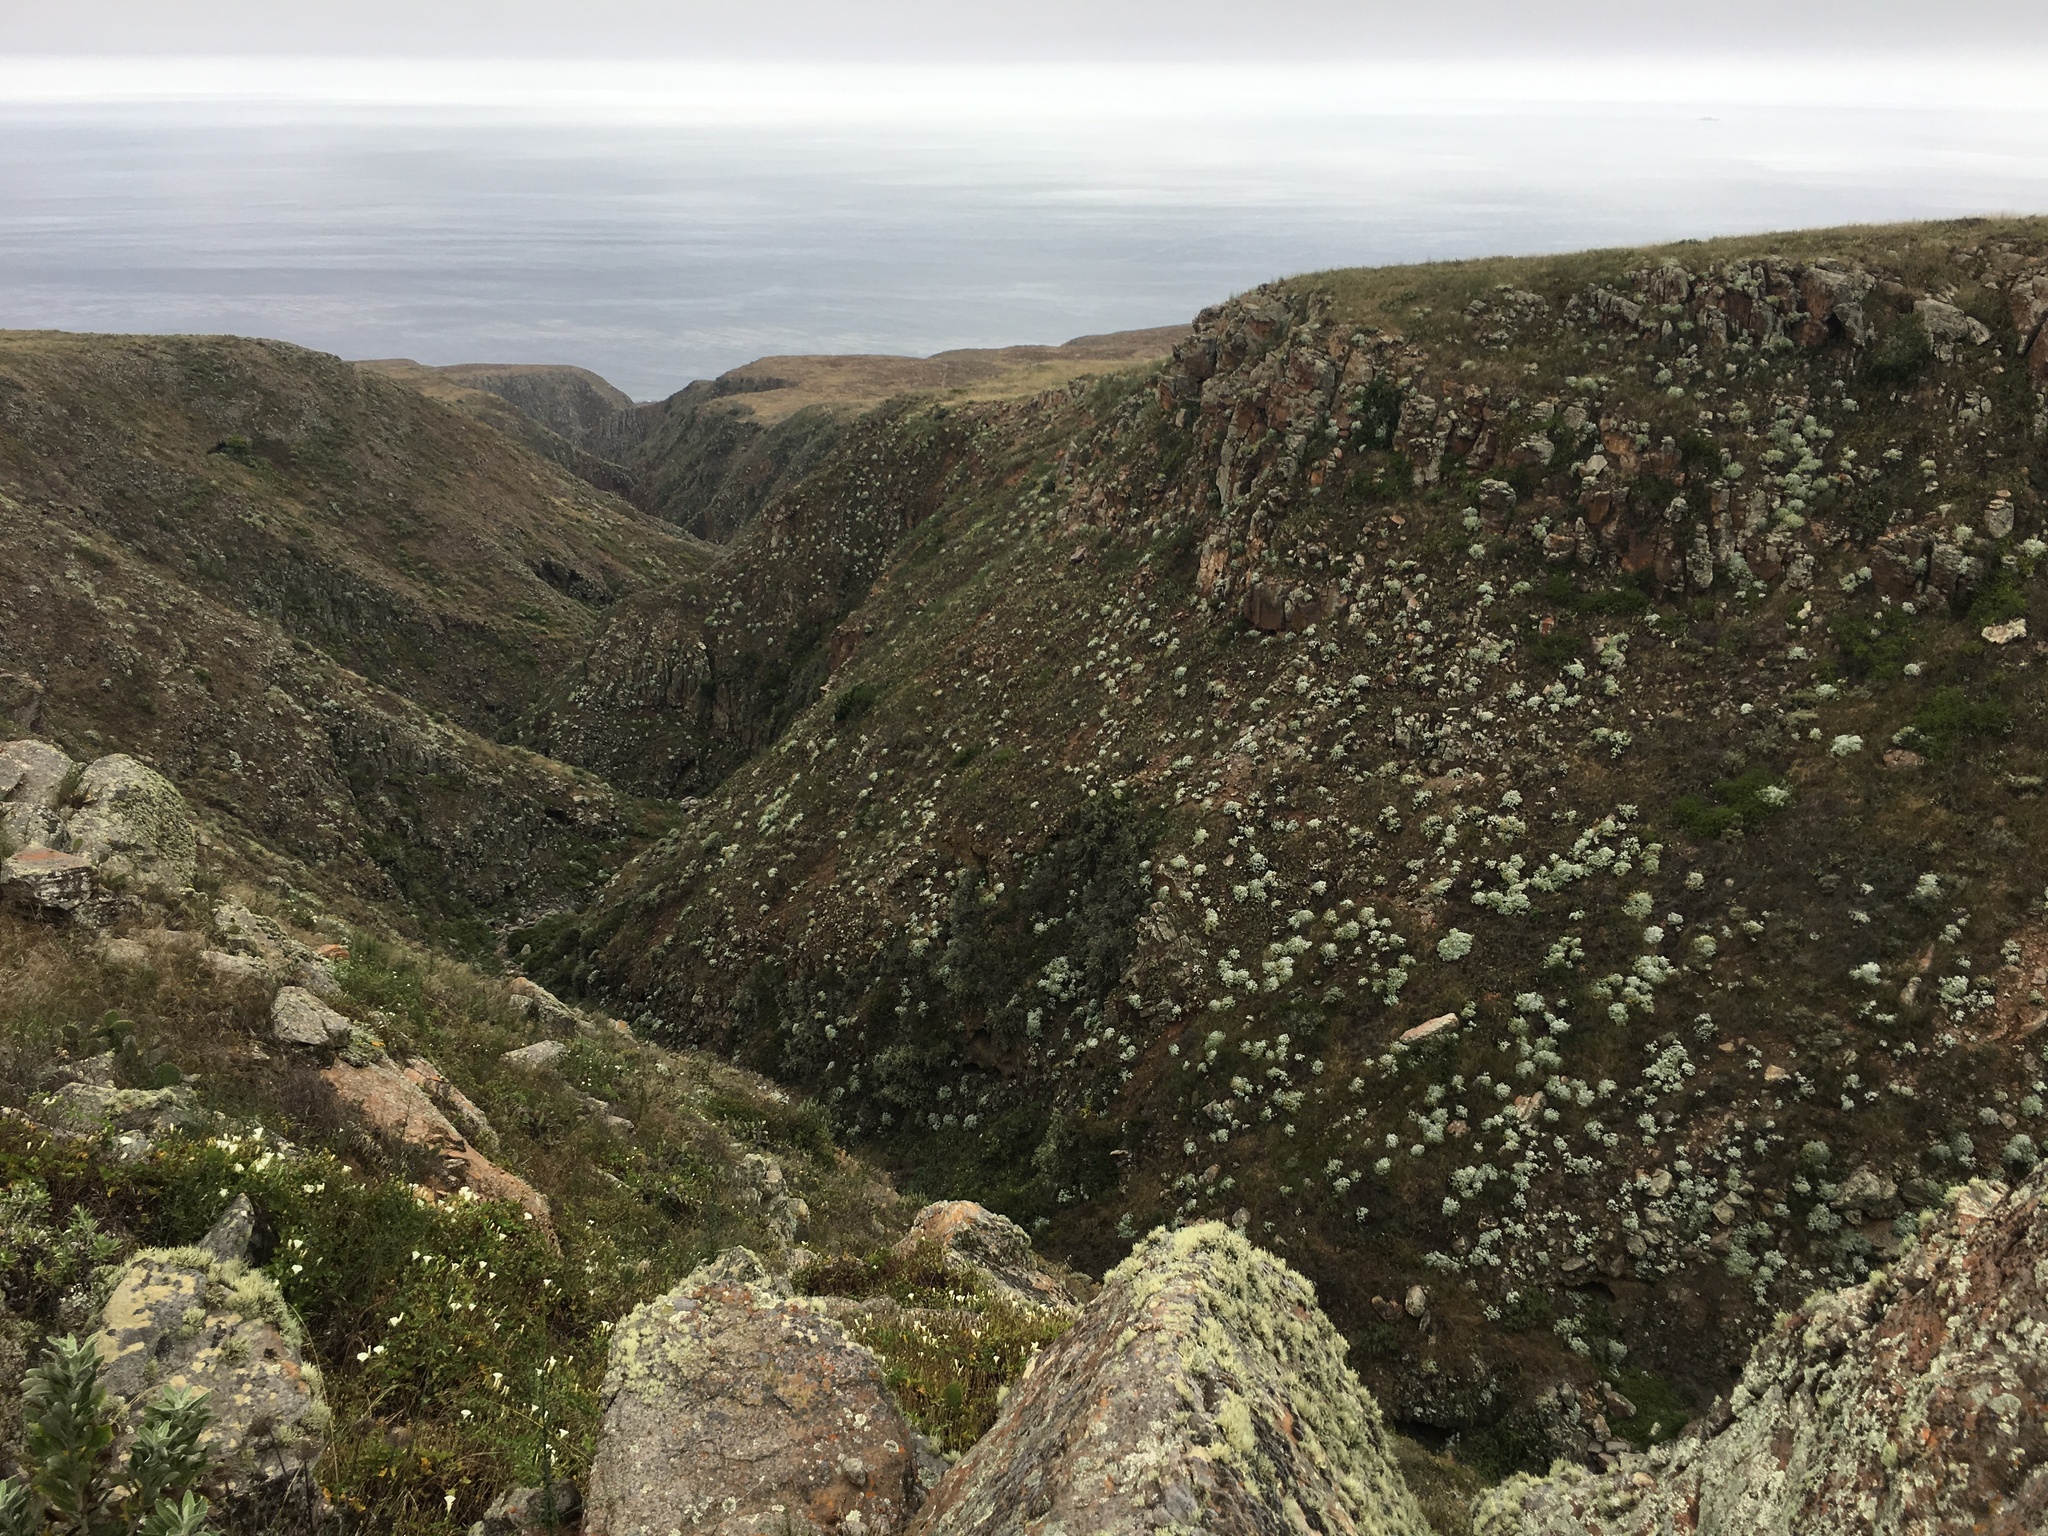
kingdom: Plantae
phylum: Tracheophyta
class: Magnoliopsida
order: Asterales
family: Asteraceae
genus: Constancea
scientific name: Constancea nevinii
